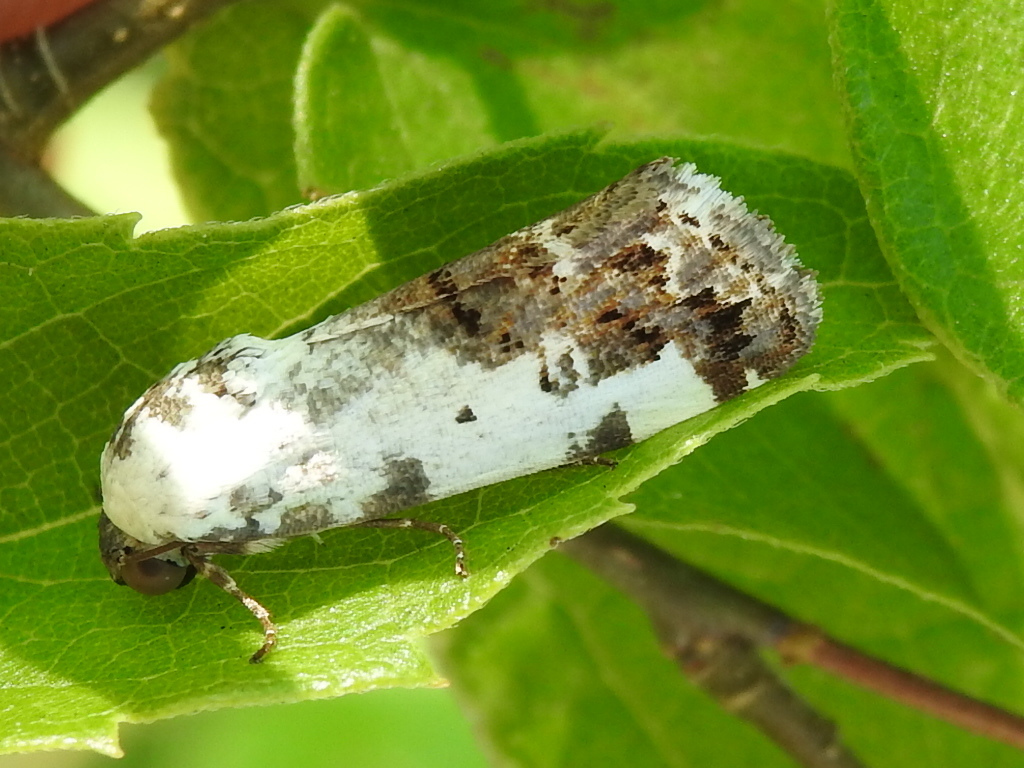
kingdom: Animalia
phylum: Arthropoda
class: Insecta
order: Lepidoptera
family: Noctuidae
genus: Acontia
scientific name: Acontia aprica
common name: Nun
